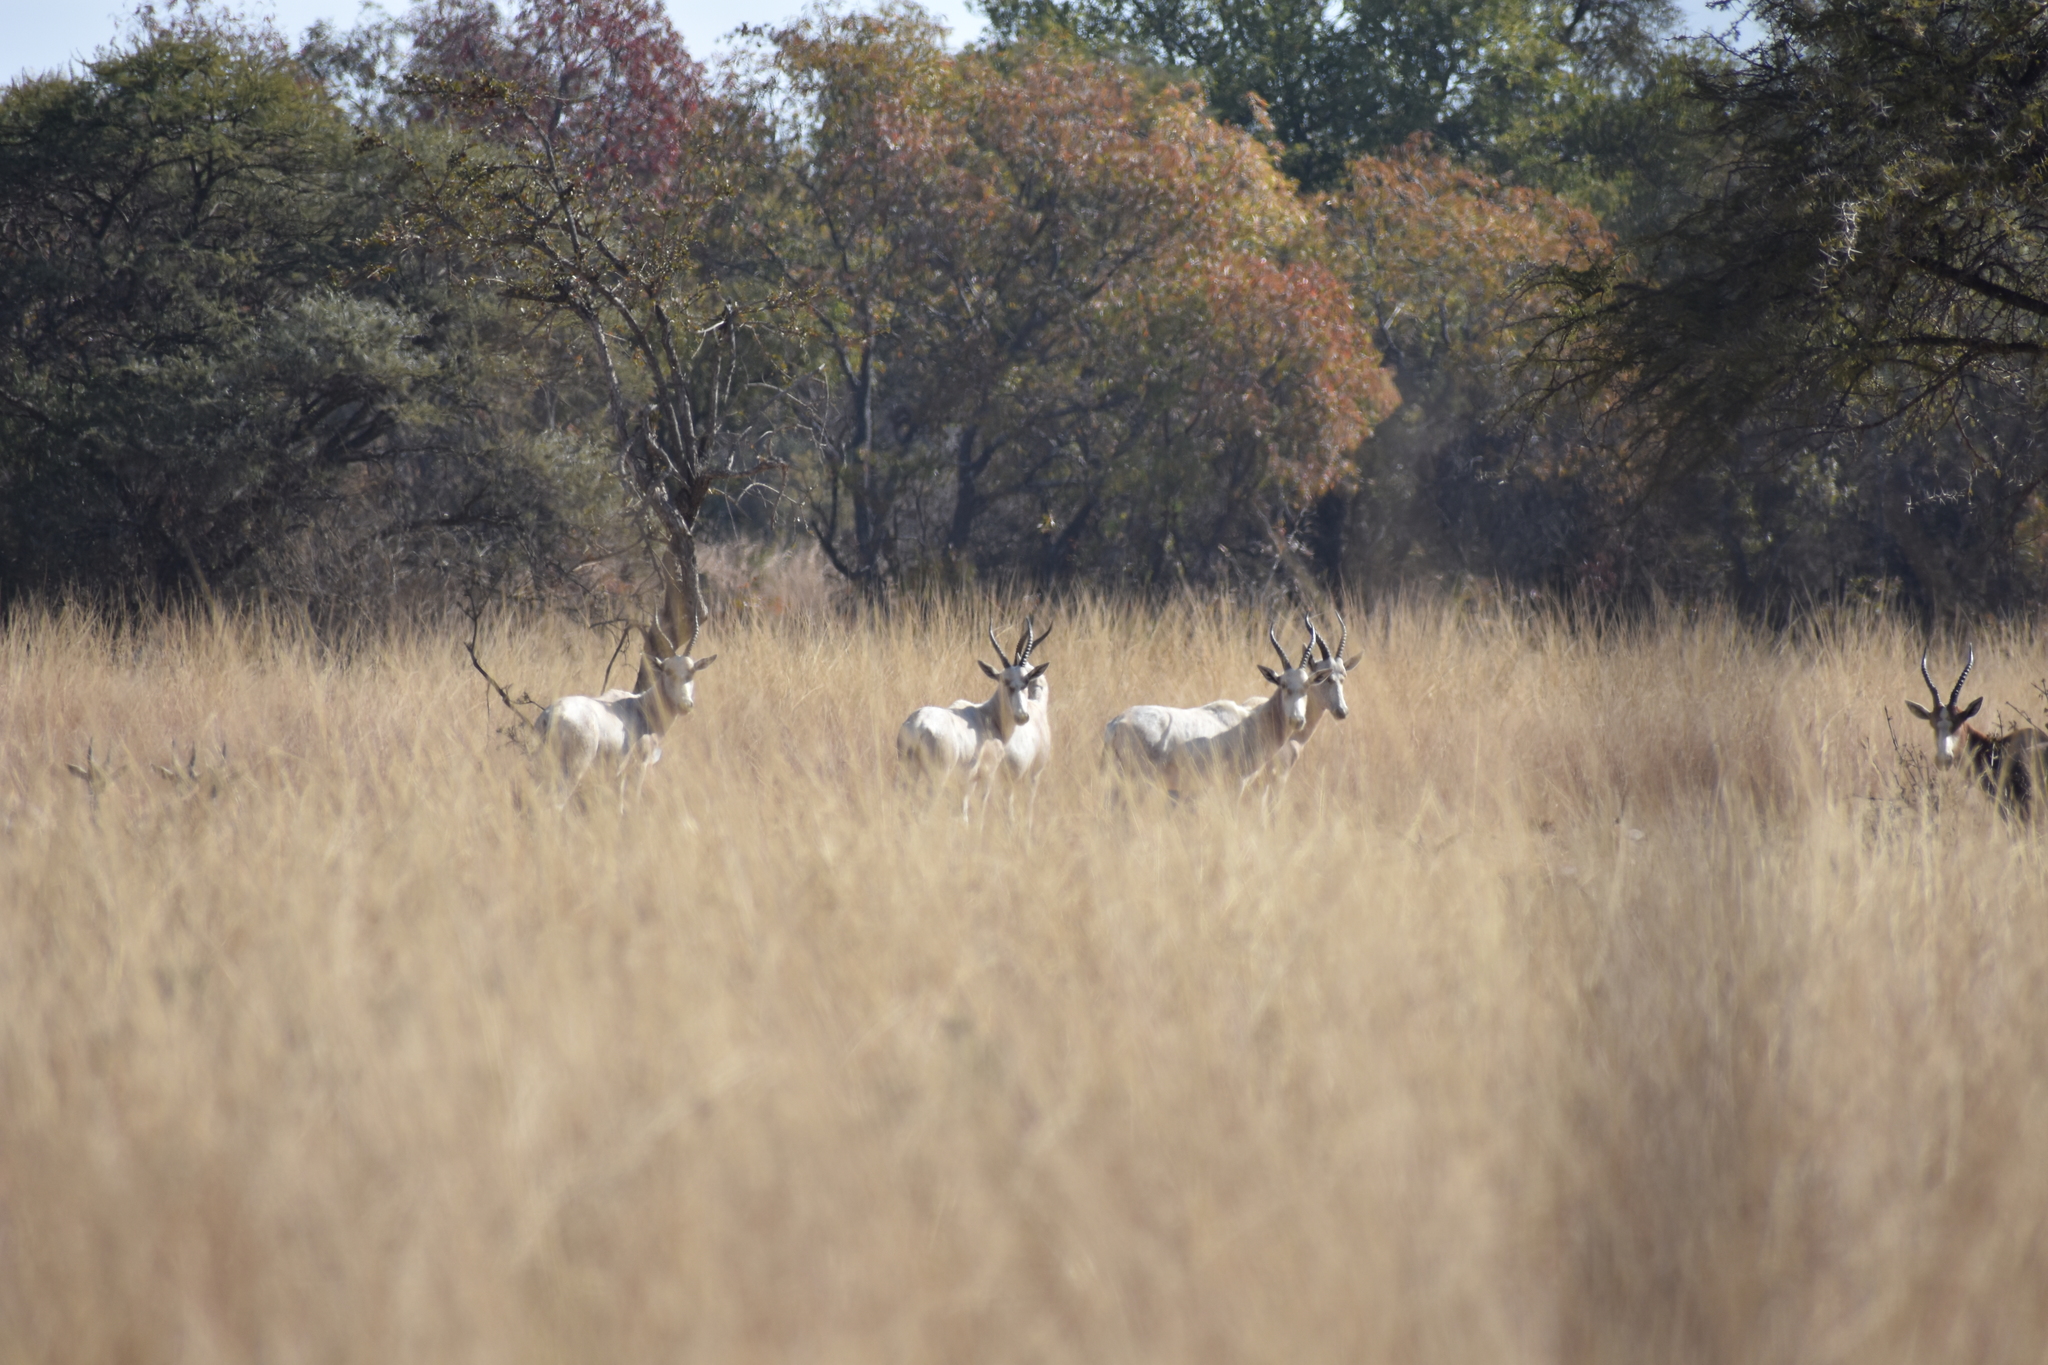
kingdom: Animalia
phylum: Chordata
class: Mammalia
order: Artiodactyla
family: Bovidae
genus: Damaliscus
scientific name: Damaliscus pygargus
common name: Bontebok
